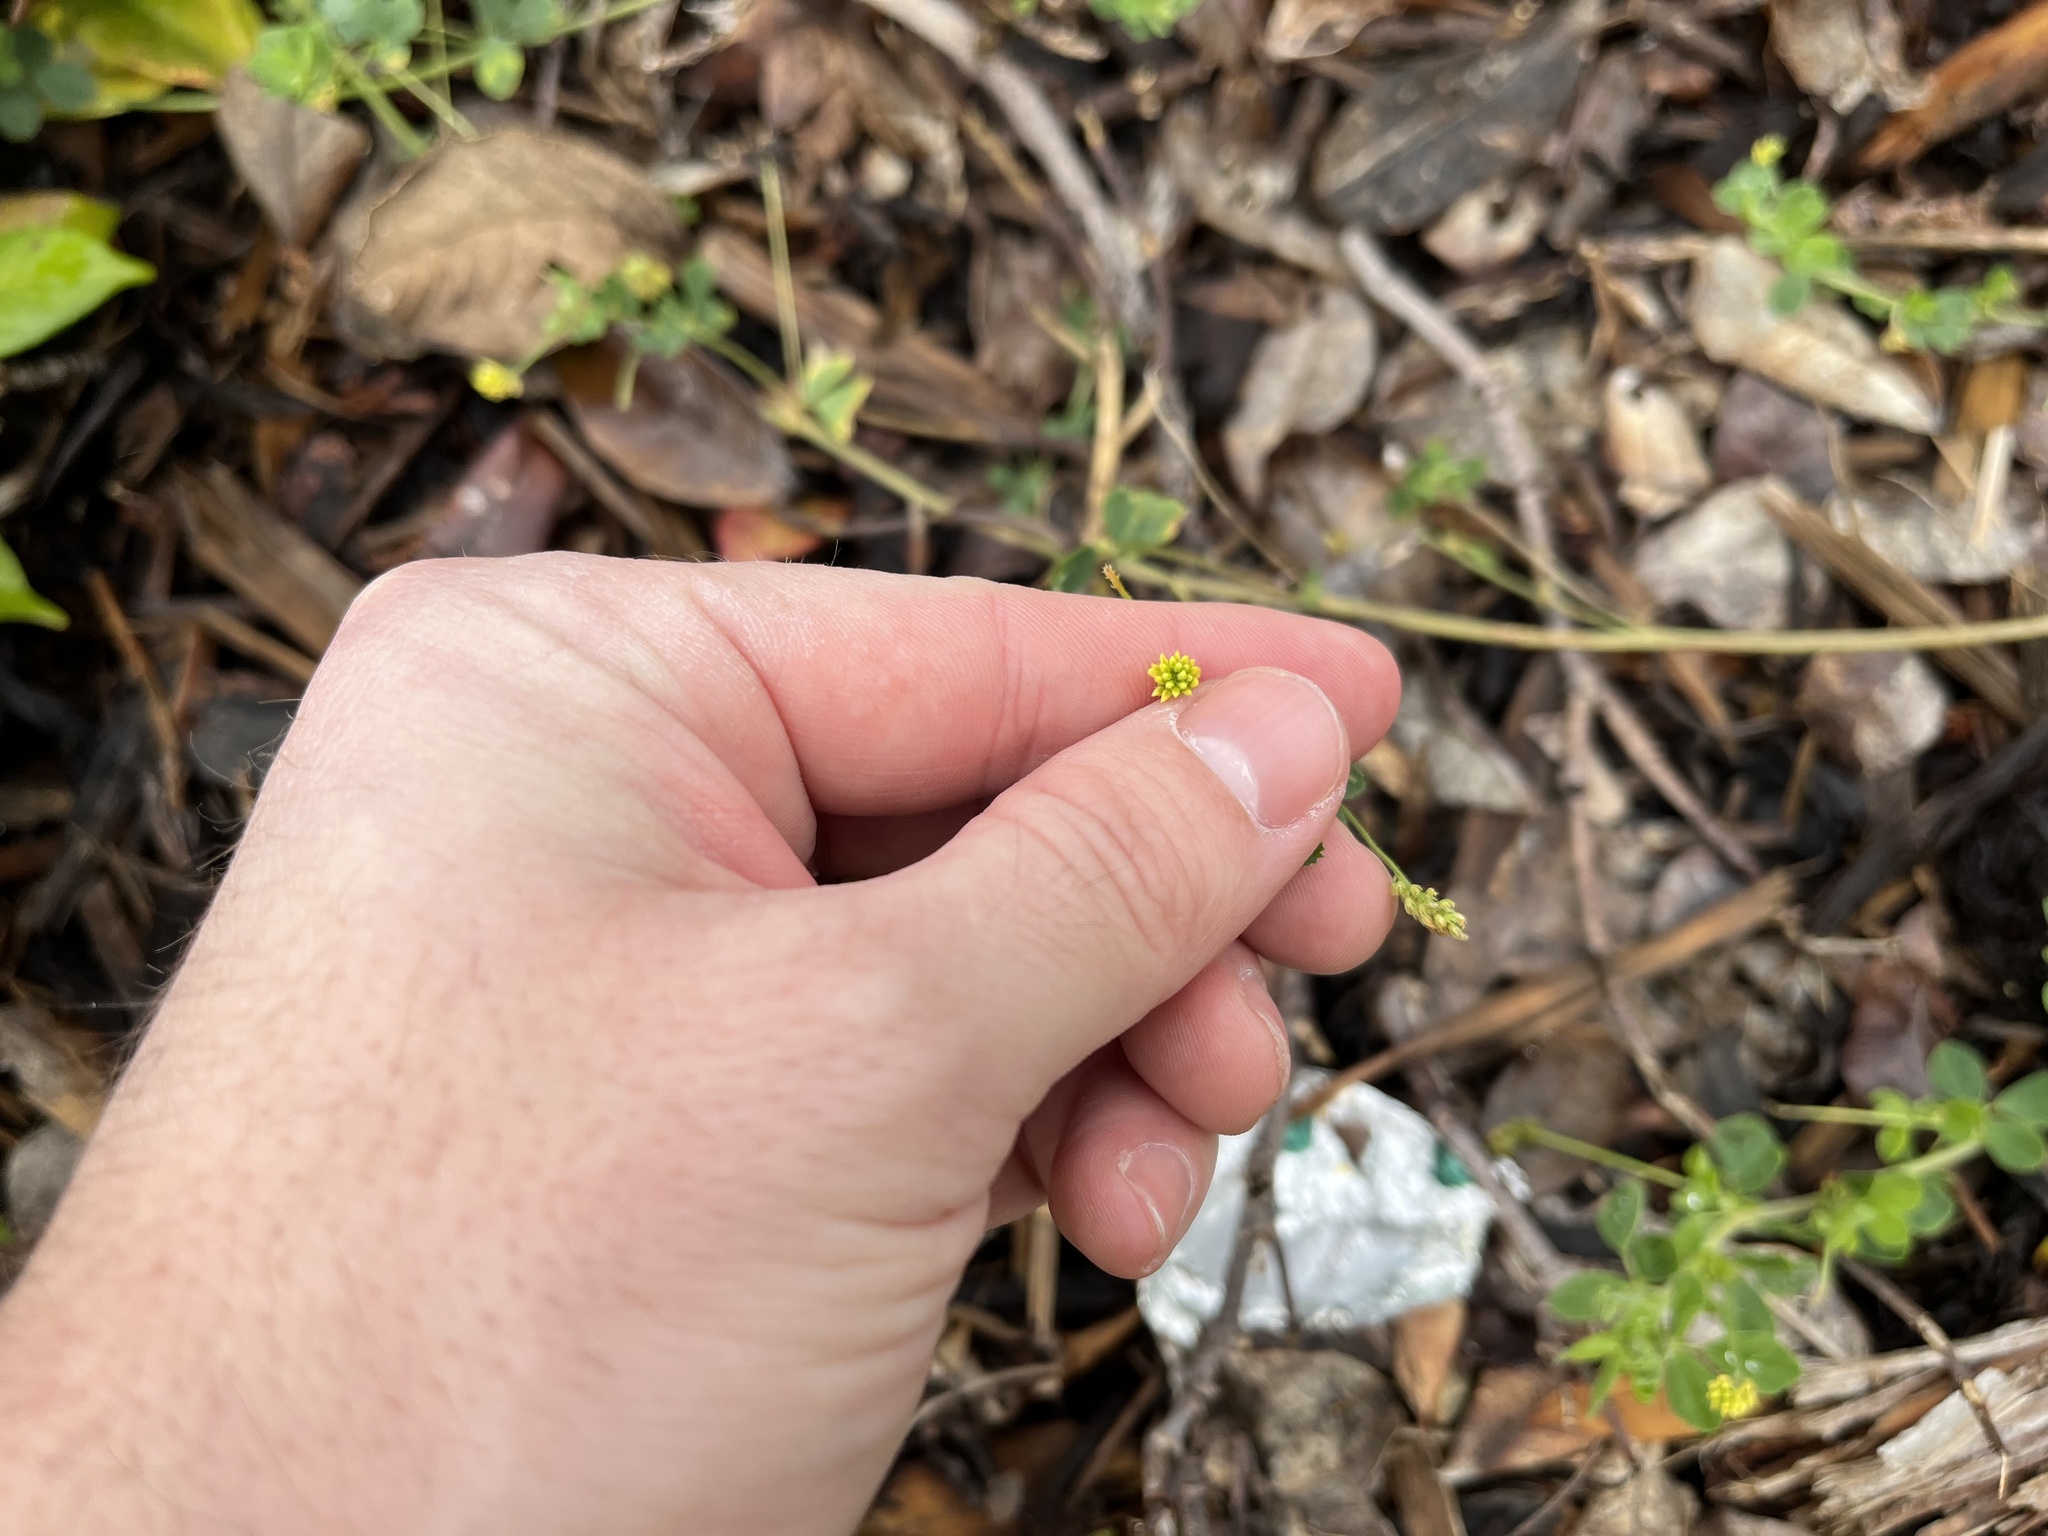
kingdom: Plantae
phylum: Tracheophyta
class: Magnoliopsida
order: Fabales
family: Fabaceae
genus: Medicago
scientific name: Medicago lupulina
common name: Black medick
